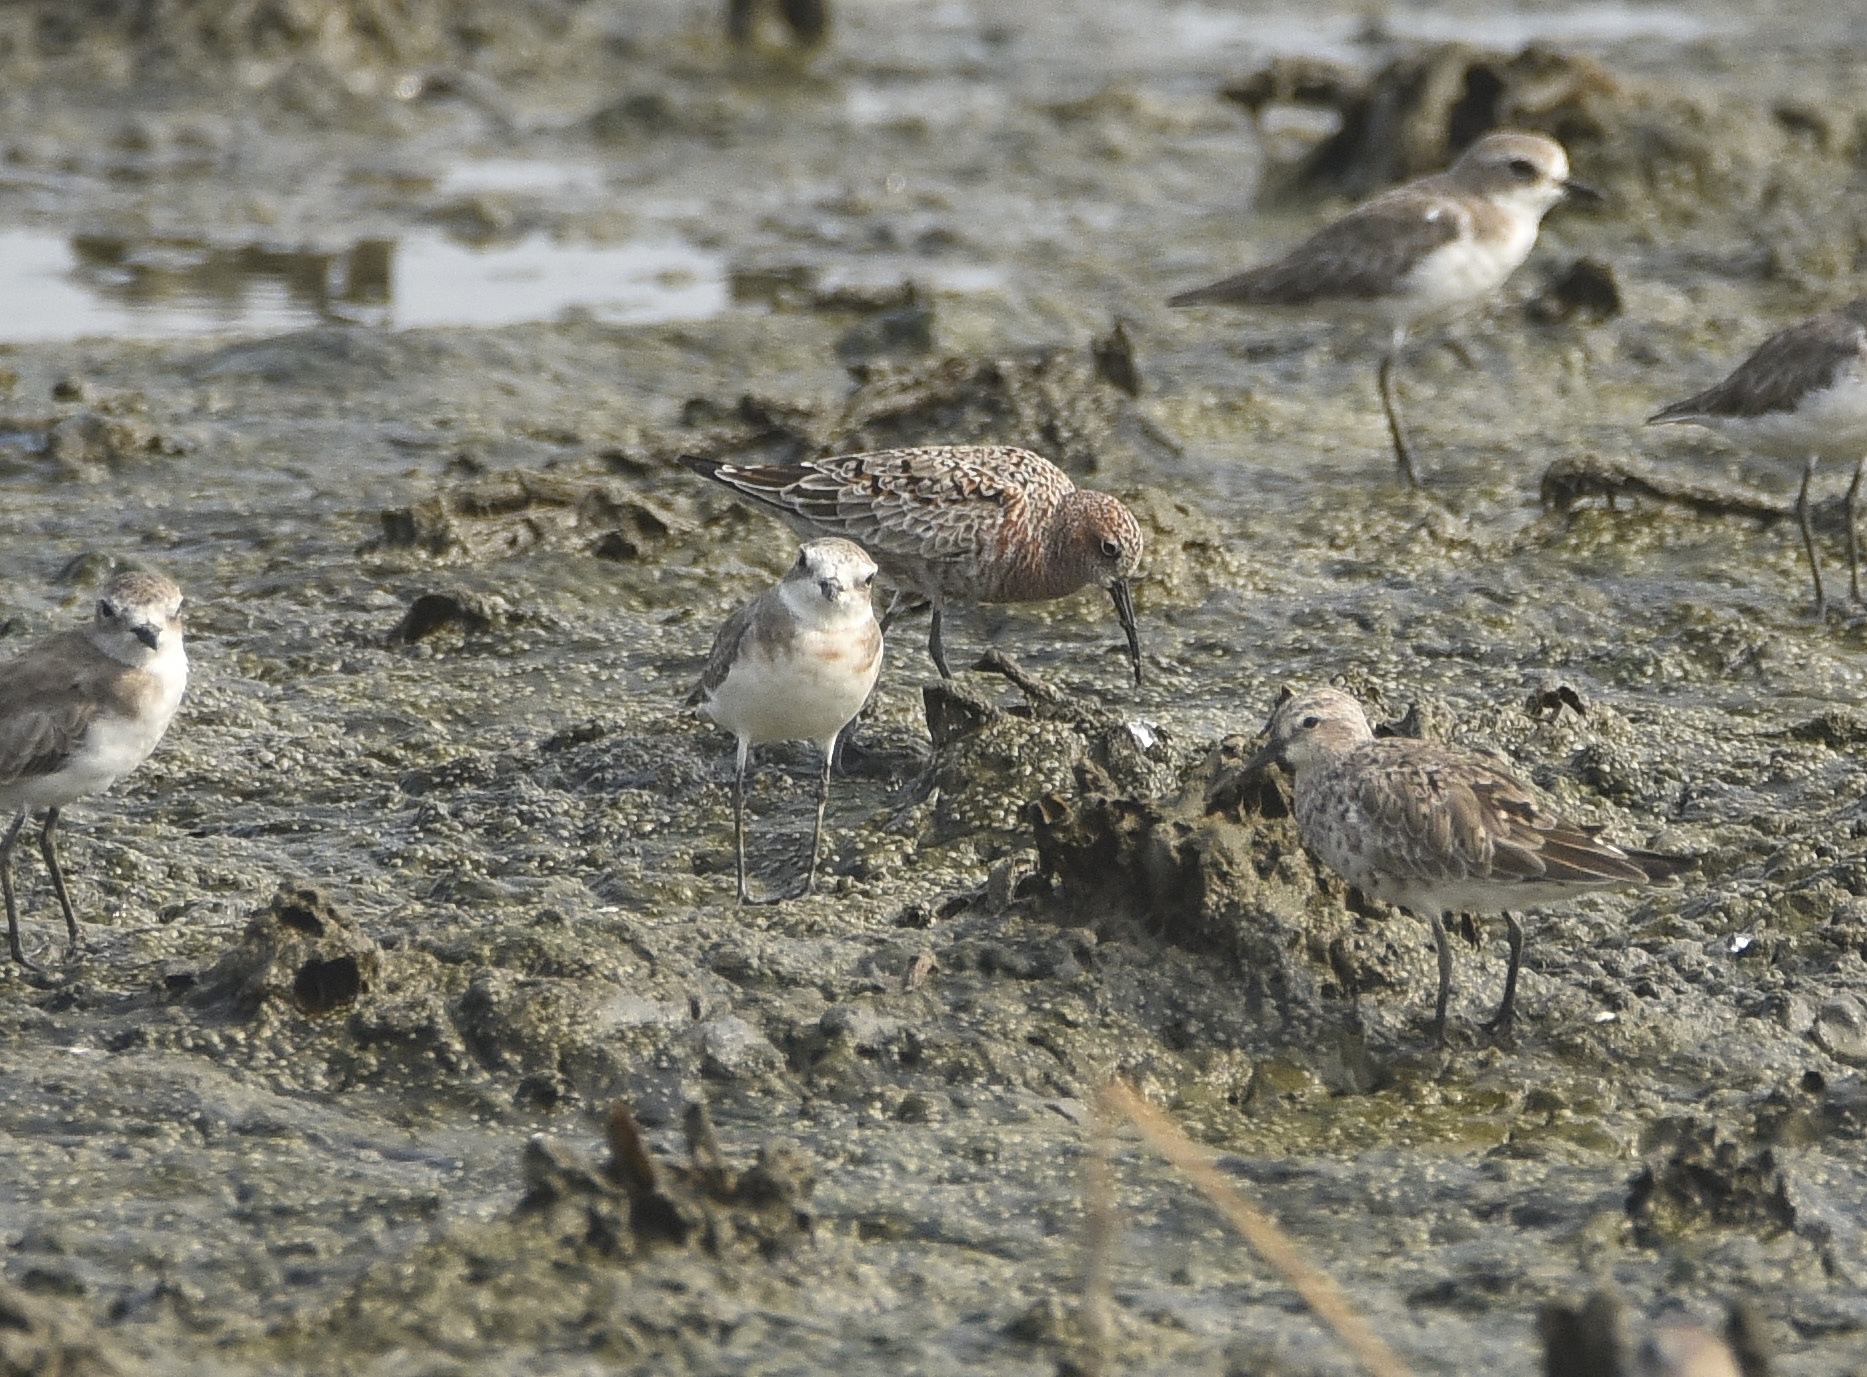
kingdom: Animalia
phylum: Chordata
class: Aves
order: Charadriiformes
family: Scolopacidae
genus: Calidris
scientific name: Calidris ferruginea
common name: Curlew sandpiper
